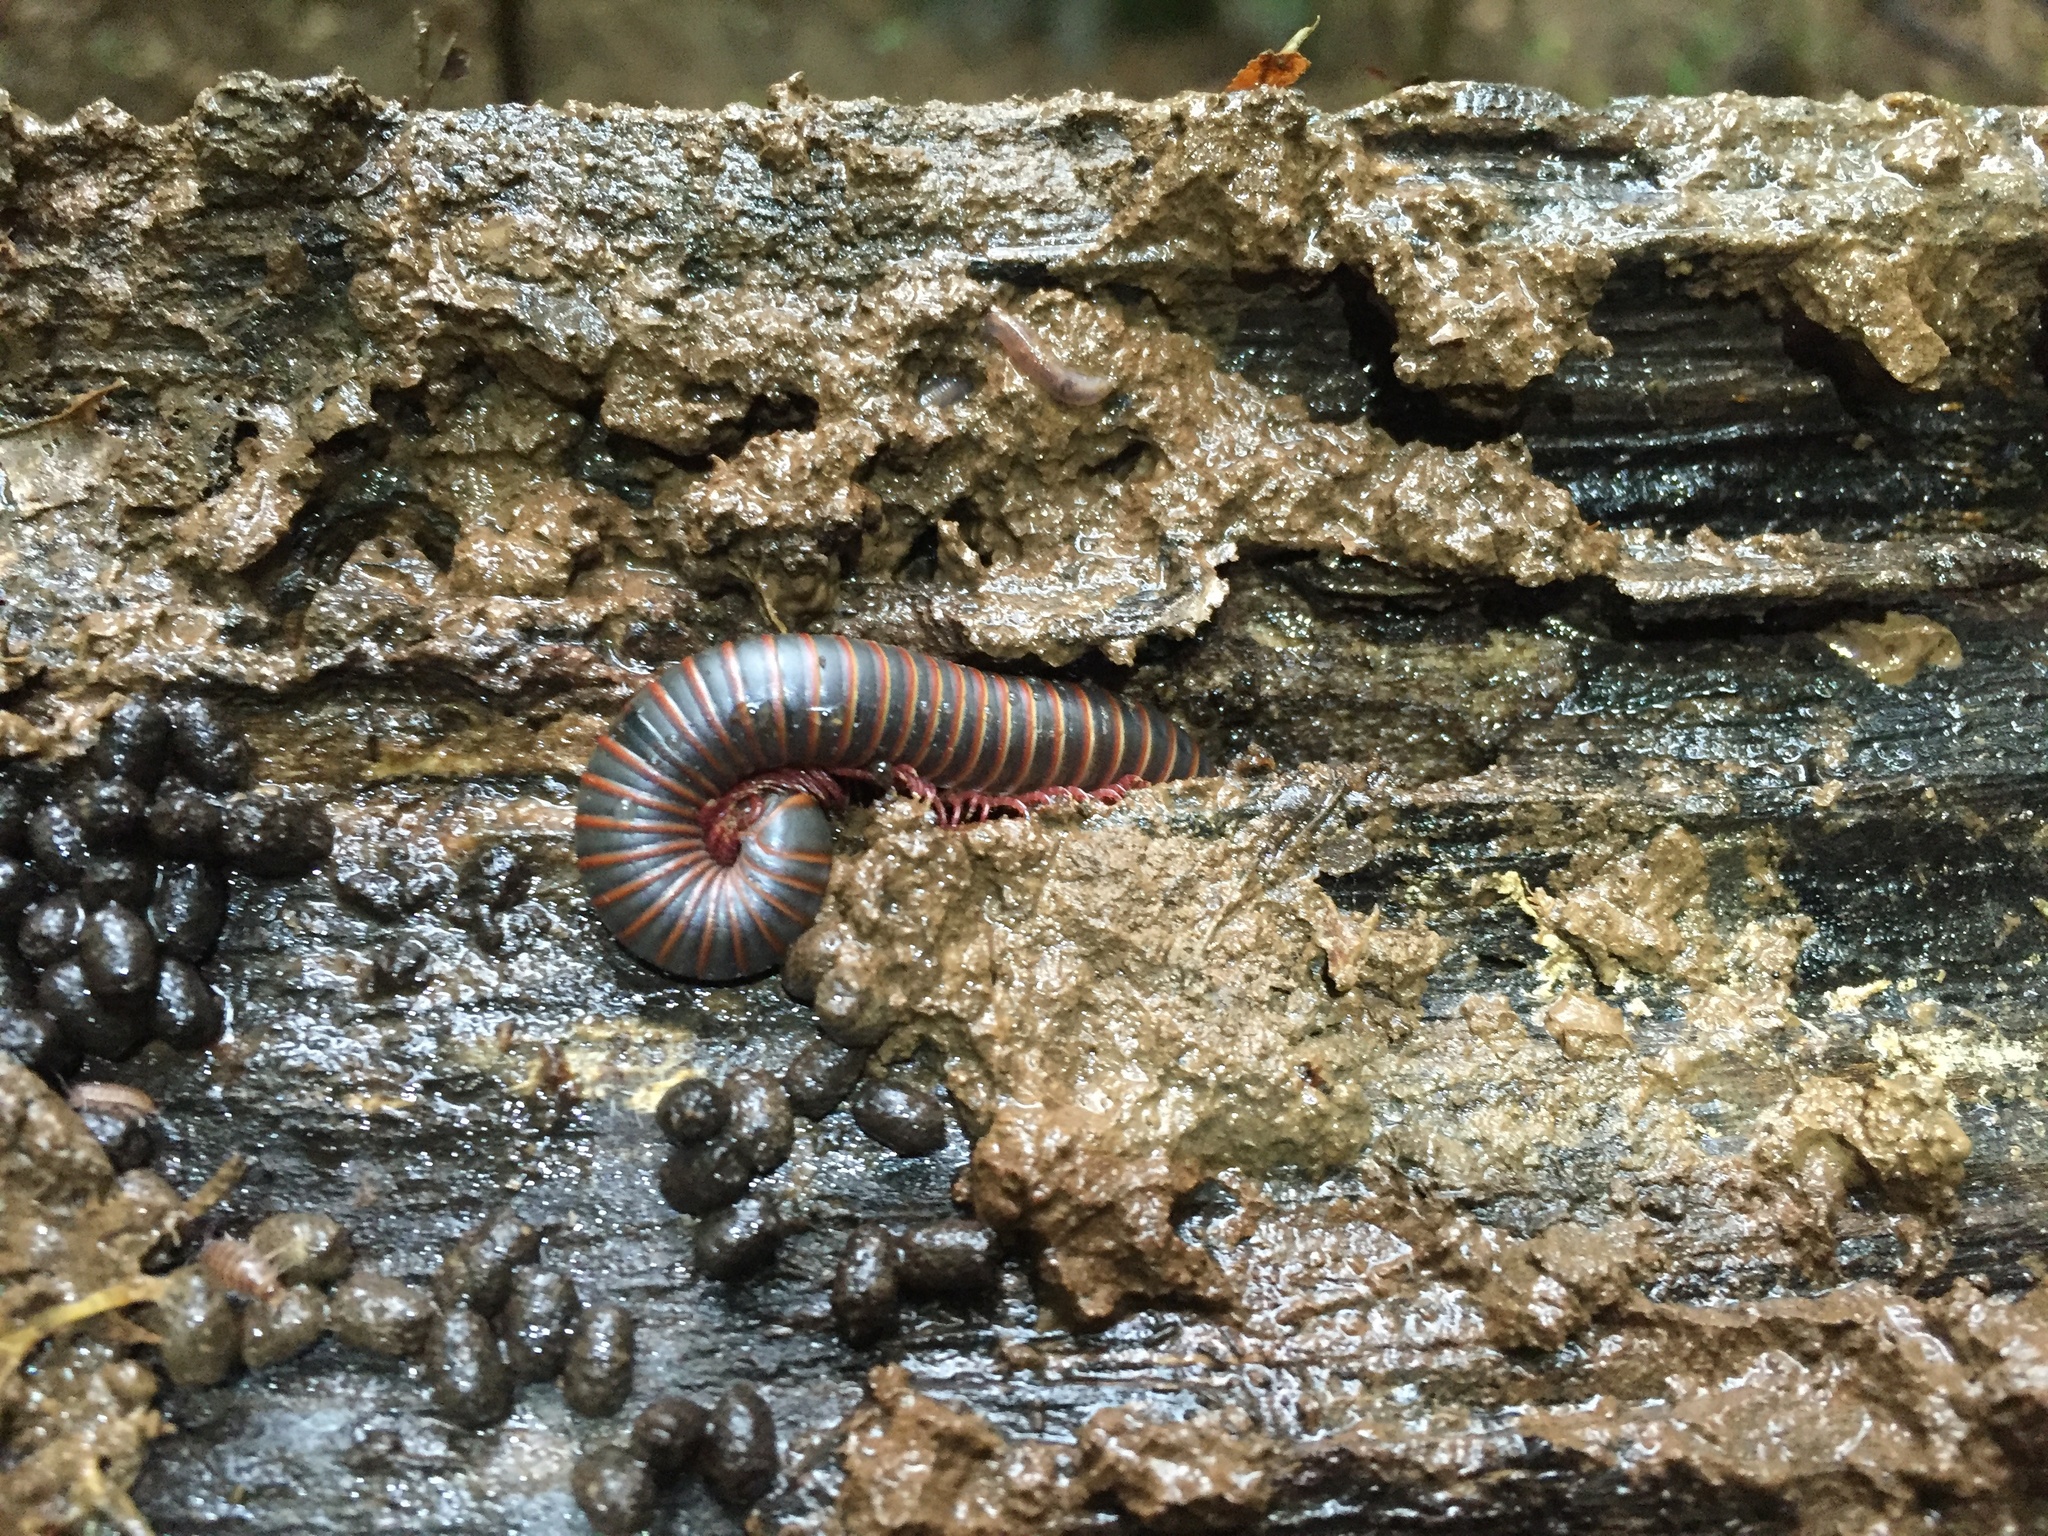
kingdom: Animalia
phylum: Arthropoda
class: Diplopoda
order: Spirobolida
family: Spirobolidae
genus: Narceus
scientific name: Narceus
